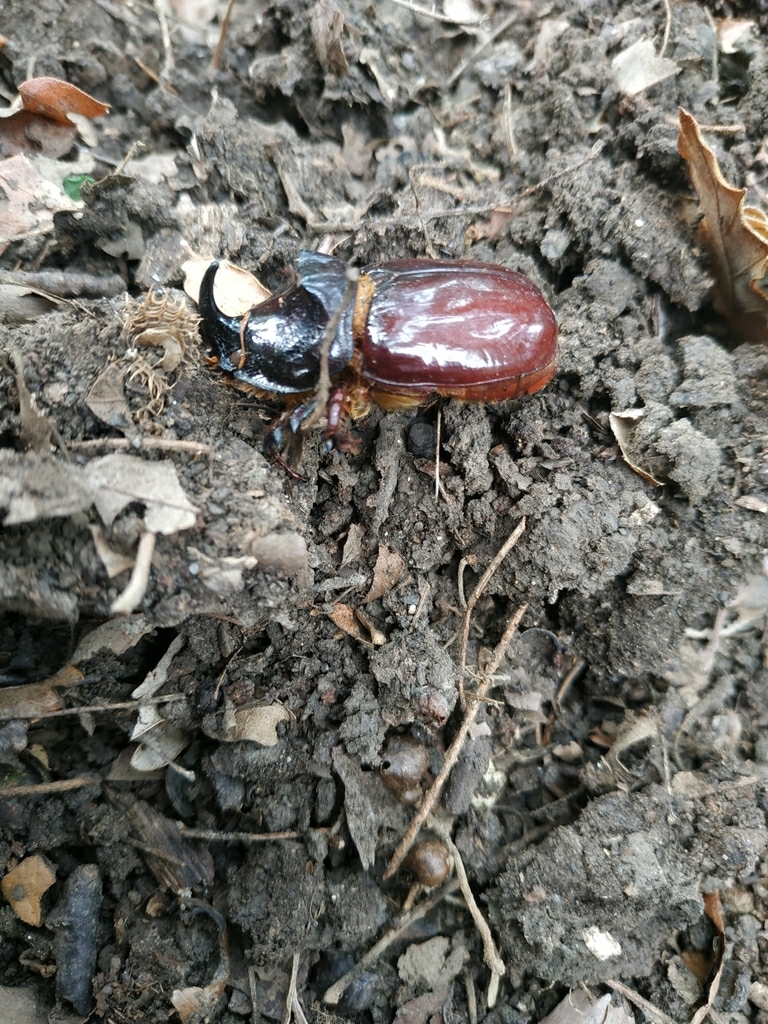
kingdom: Animalia
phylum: Arthropoda
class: Insecta
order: Coleoptera
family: Scarabaeidae
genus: Oryctes
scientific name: Oryctes nasicornis
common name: European rhinoceros beetle
